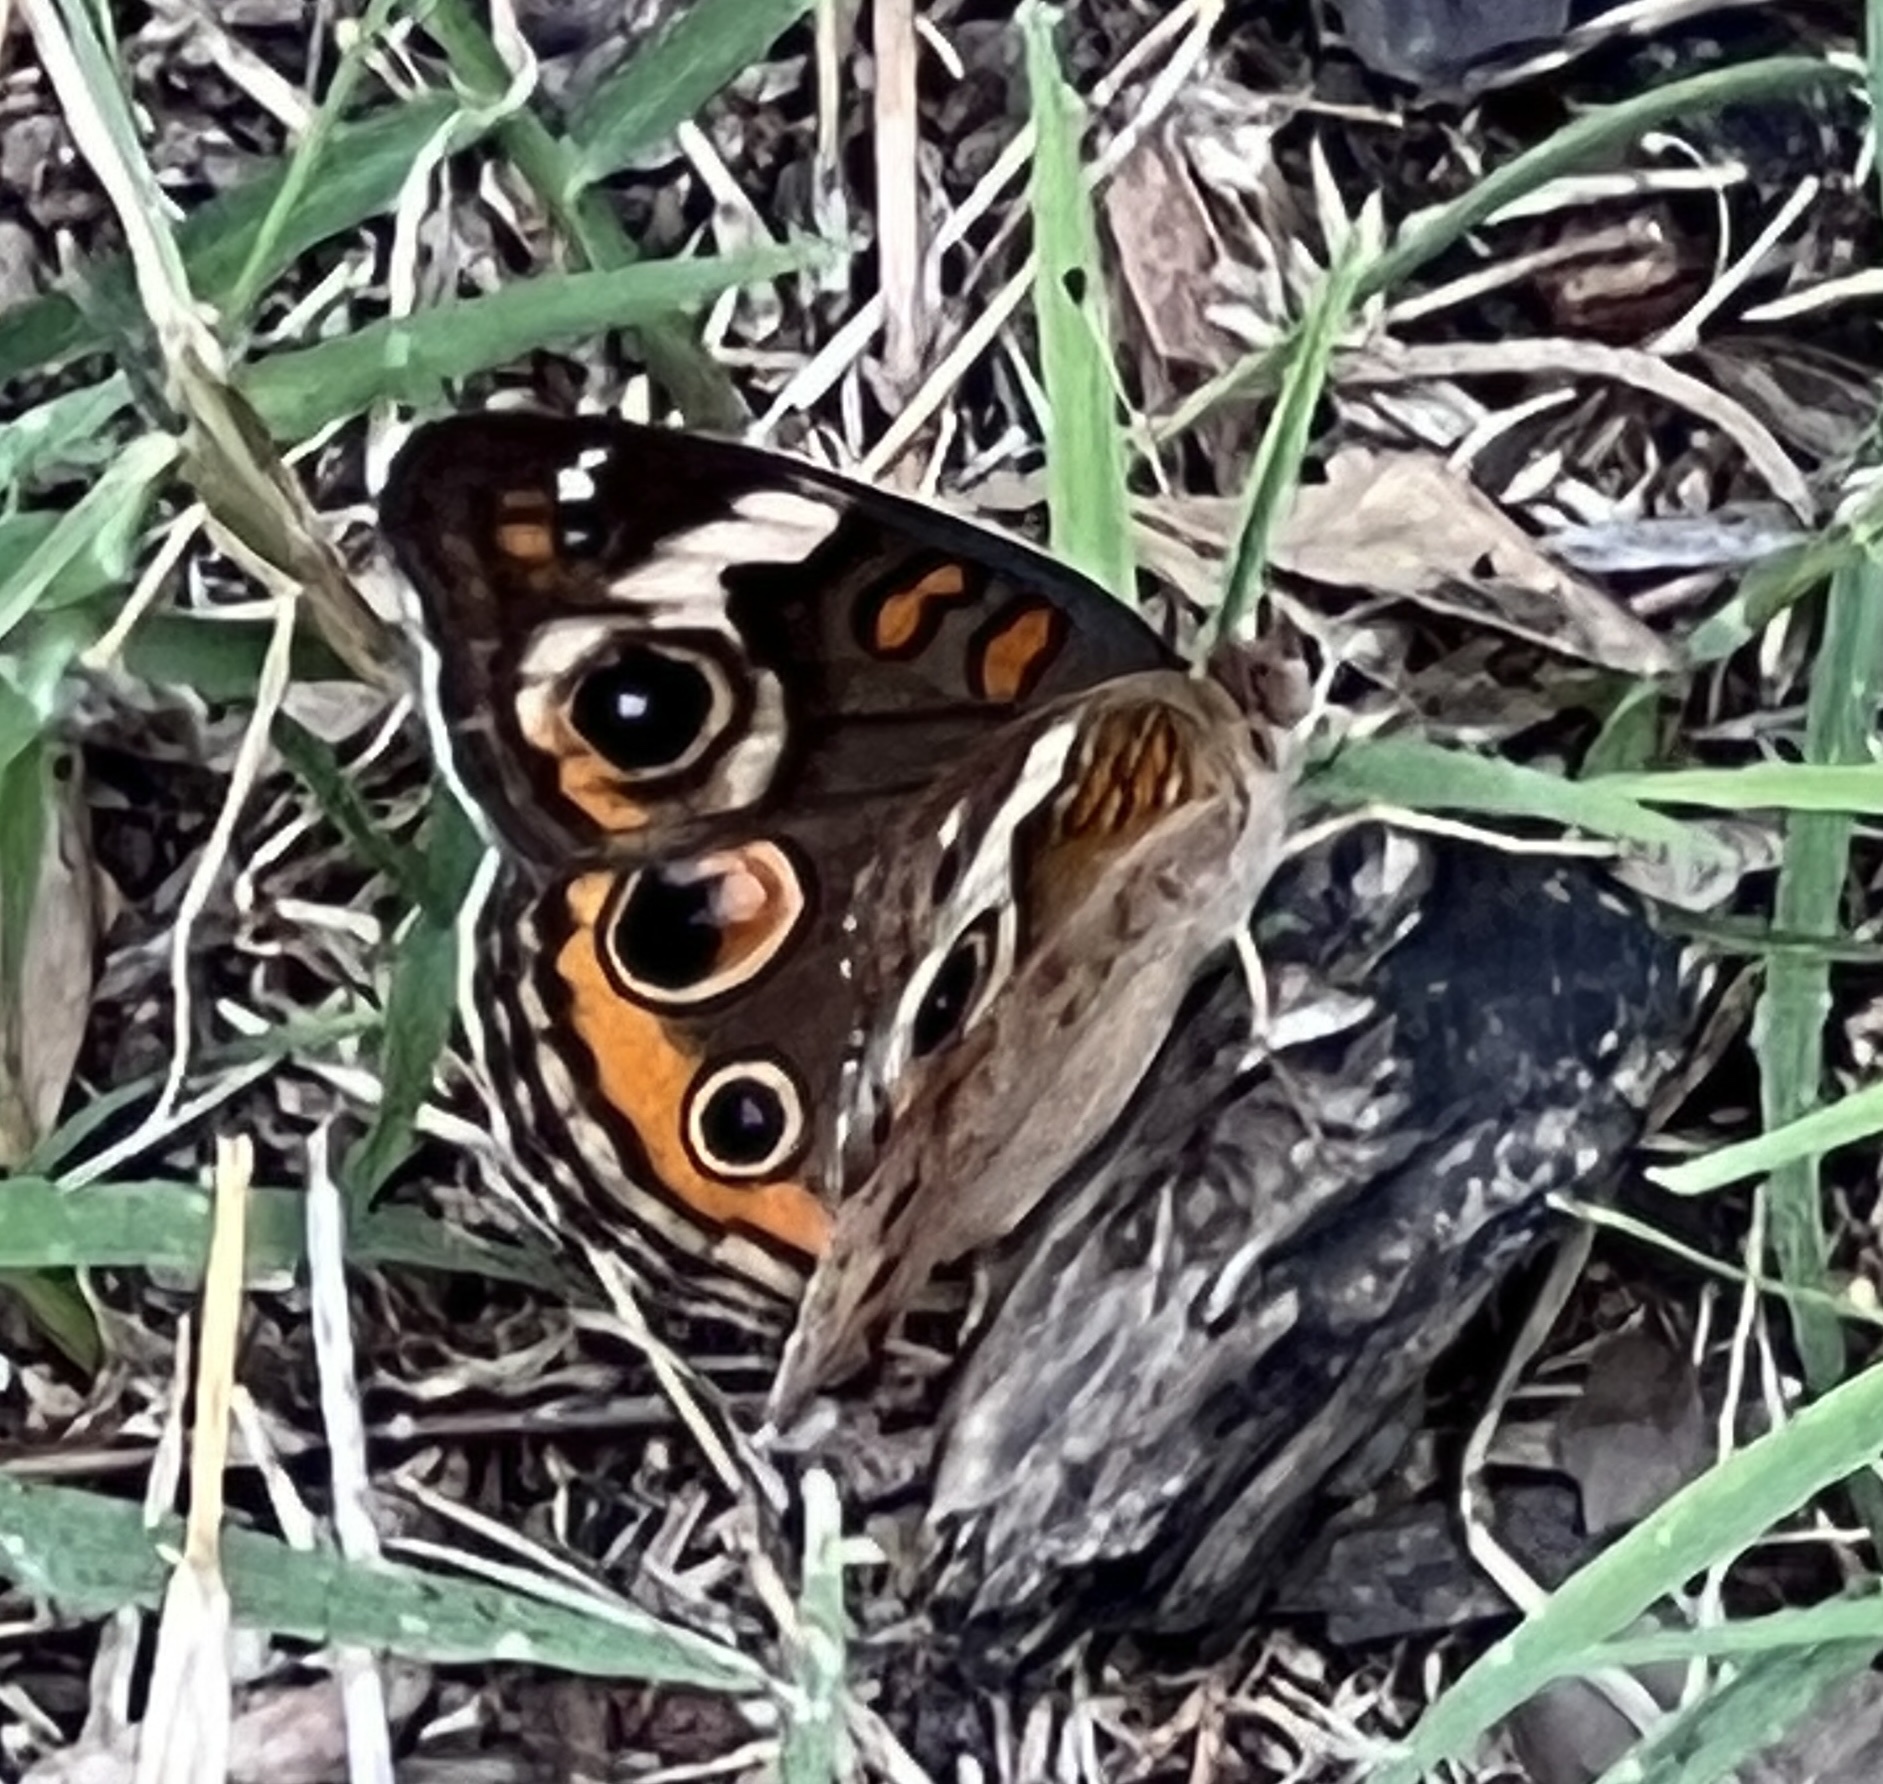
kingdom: Animalia
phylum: Arthropoda
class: Insecta
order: Lepidoptera
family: Nymphalidae
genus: Junonia
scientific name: Junonia coenia
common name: Common buckeye
